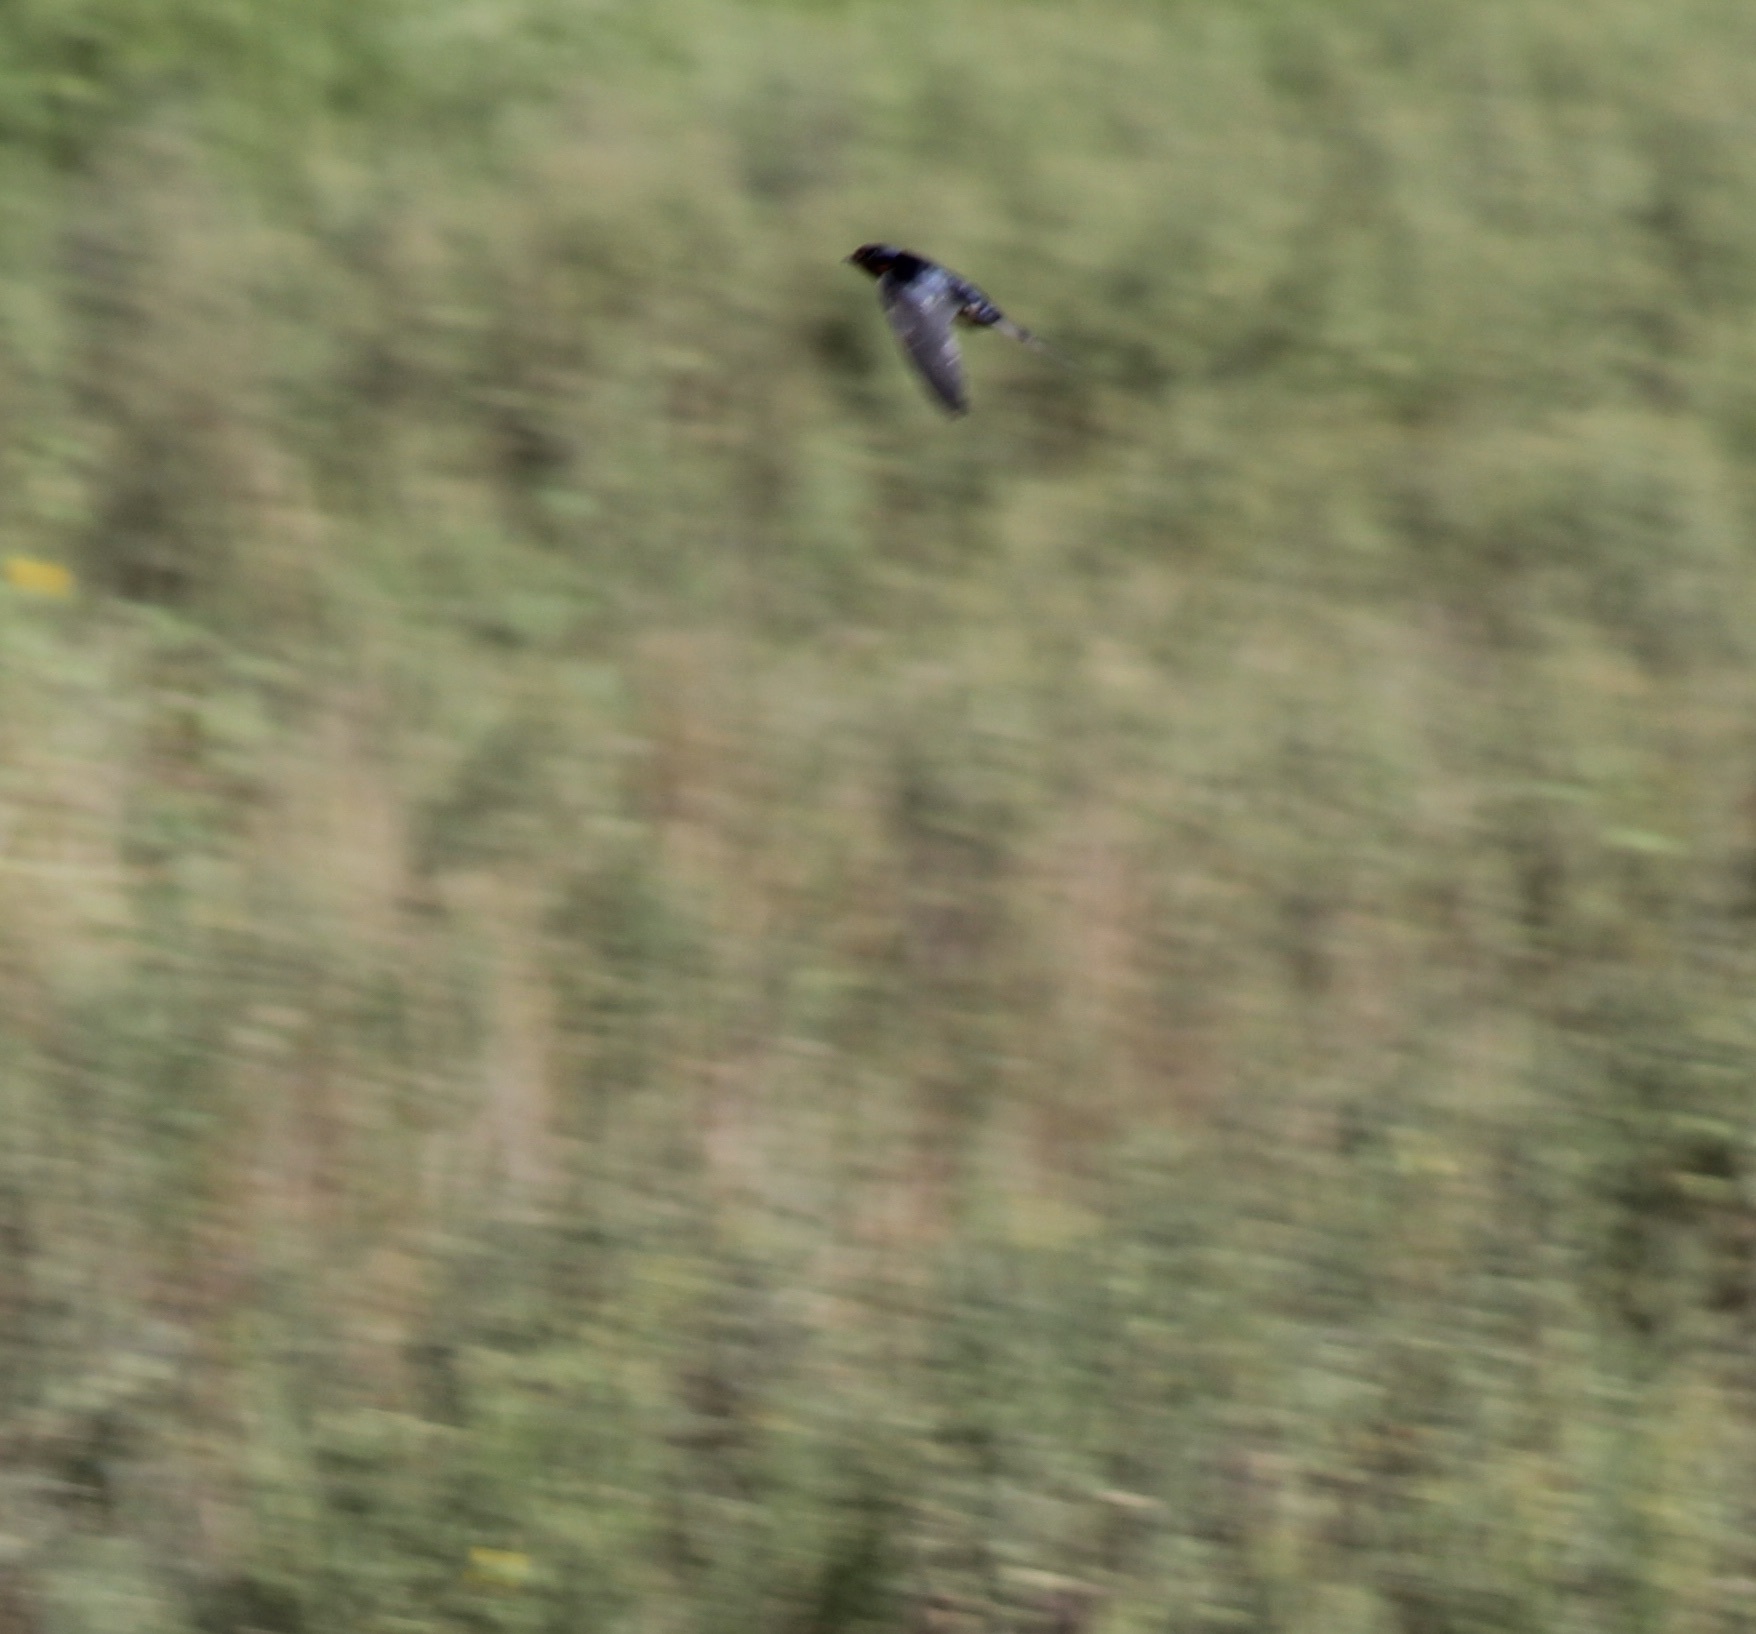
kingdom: Animalia
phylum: Chordata
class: Aves
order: Passeriformes
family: Hirundinidae
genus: Hirundo
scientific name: Hirundo rustica
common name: Barn swallow
